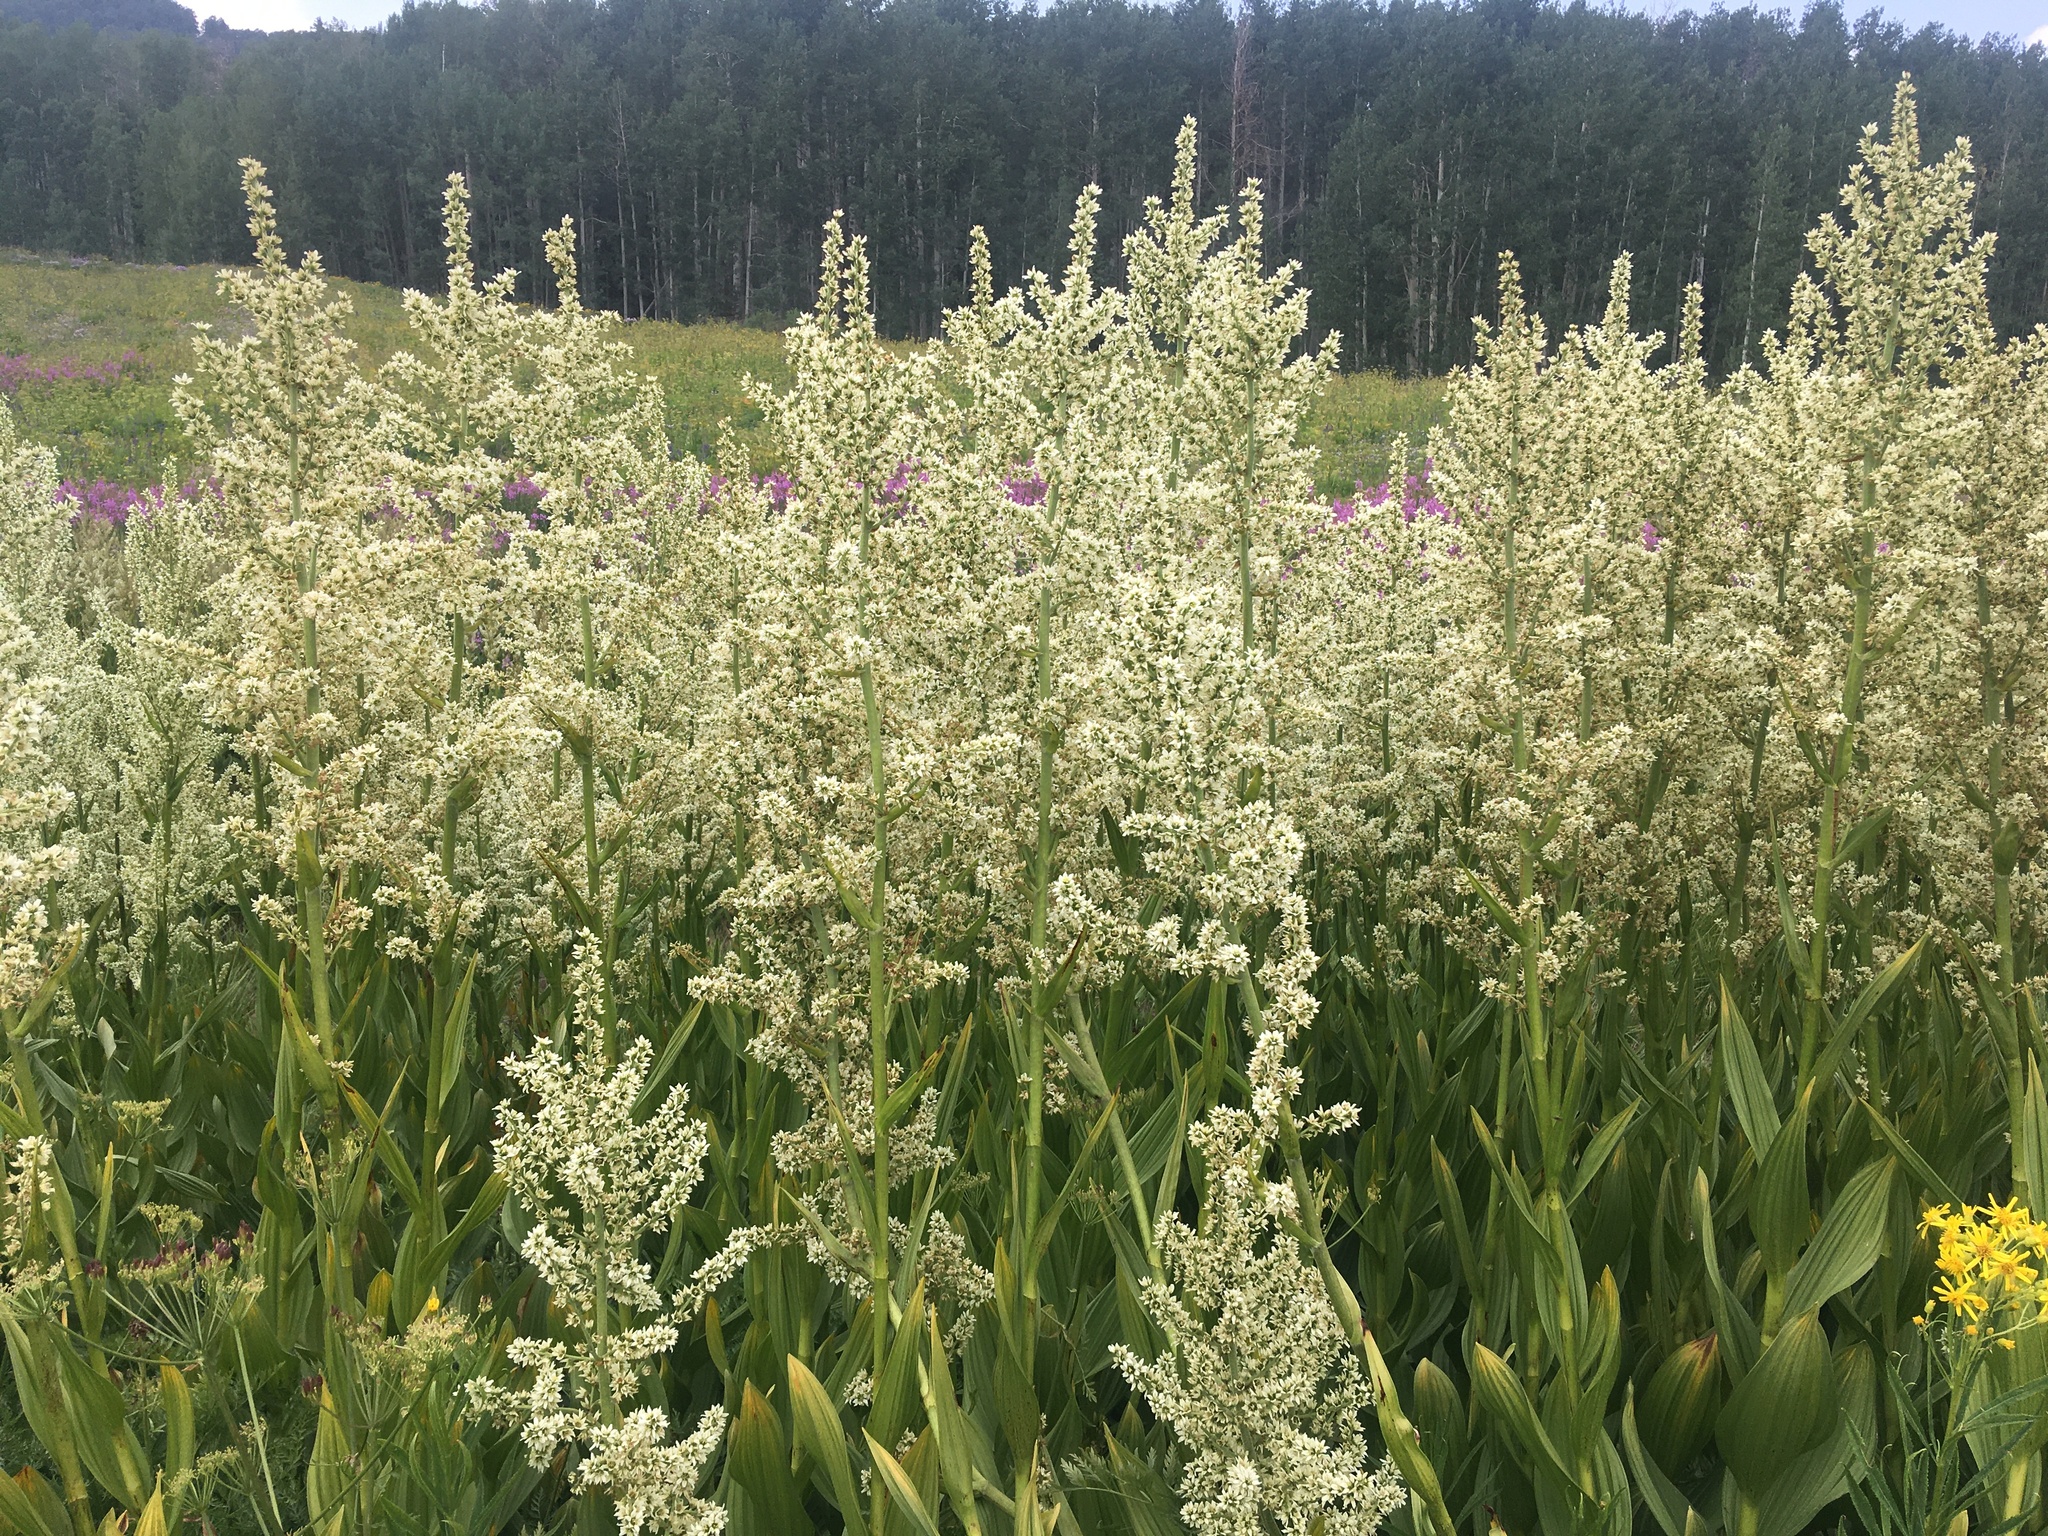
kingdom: Plantae
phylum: Tracheophyta
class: Liliopsida
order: Liliales
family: Melanthiaceae
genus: Veratrum
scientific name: Veratrum californicum
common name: California veratrum
